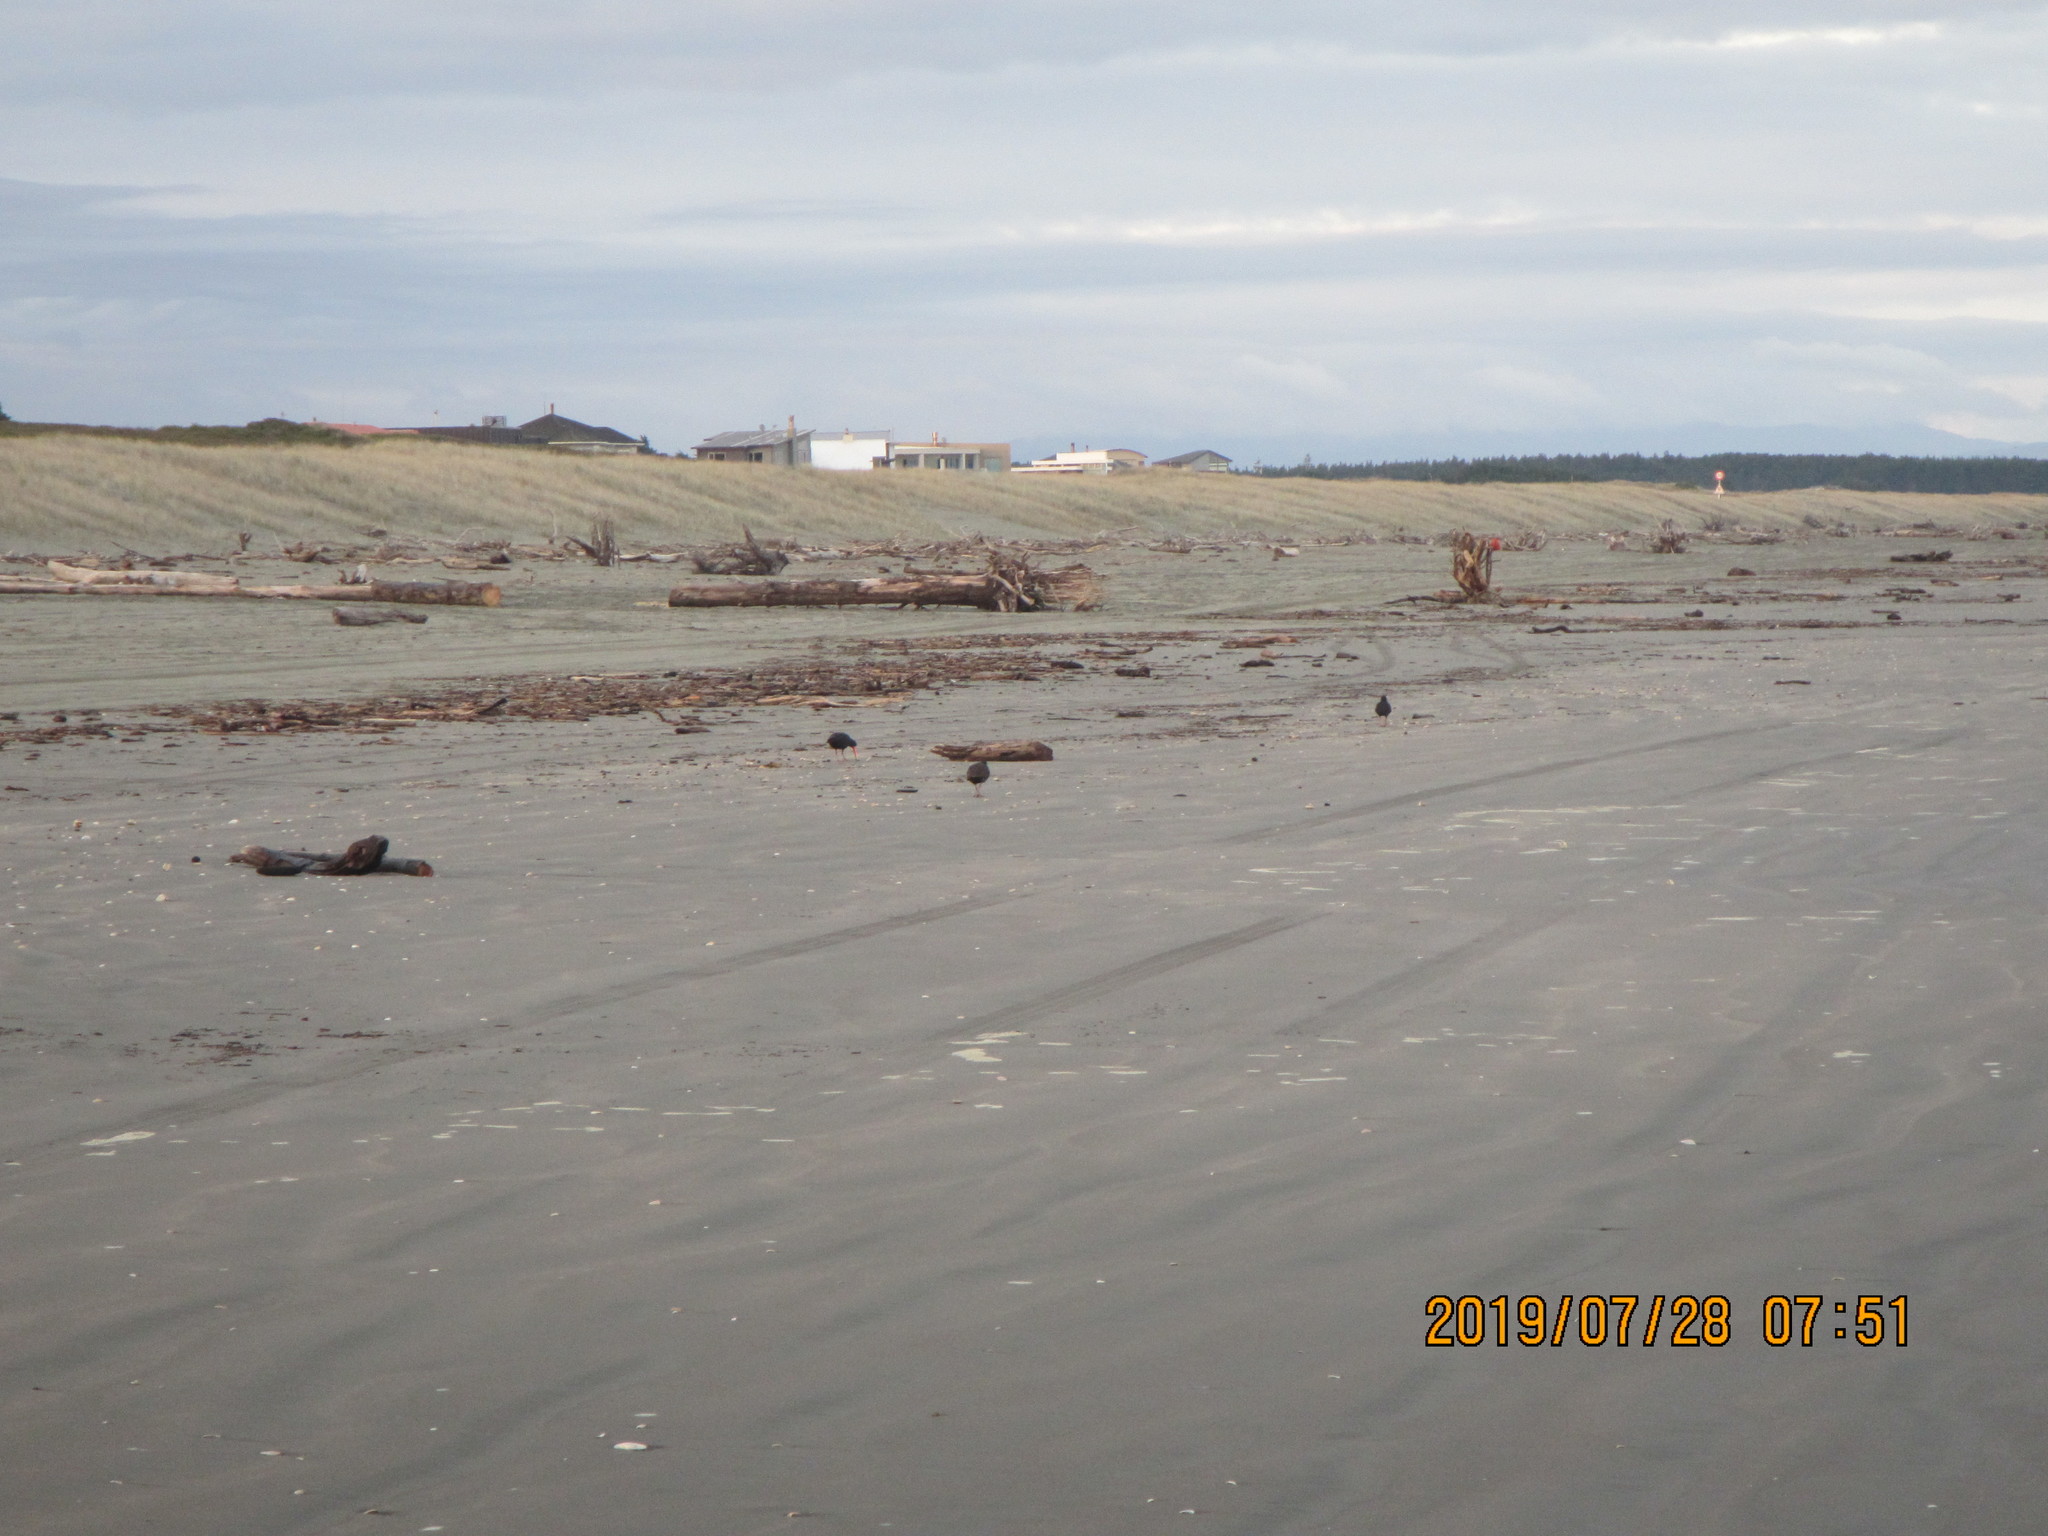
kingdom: Animalia
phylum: Chordata
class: Aves
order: Charadriiformes
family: Haematopodidae
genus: Haematopus
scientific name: Haematopus unicolor
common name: Variable oystercatcher
